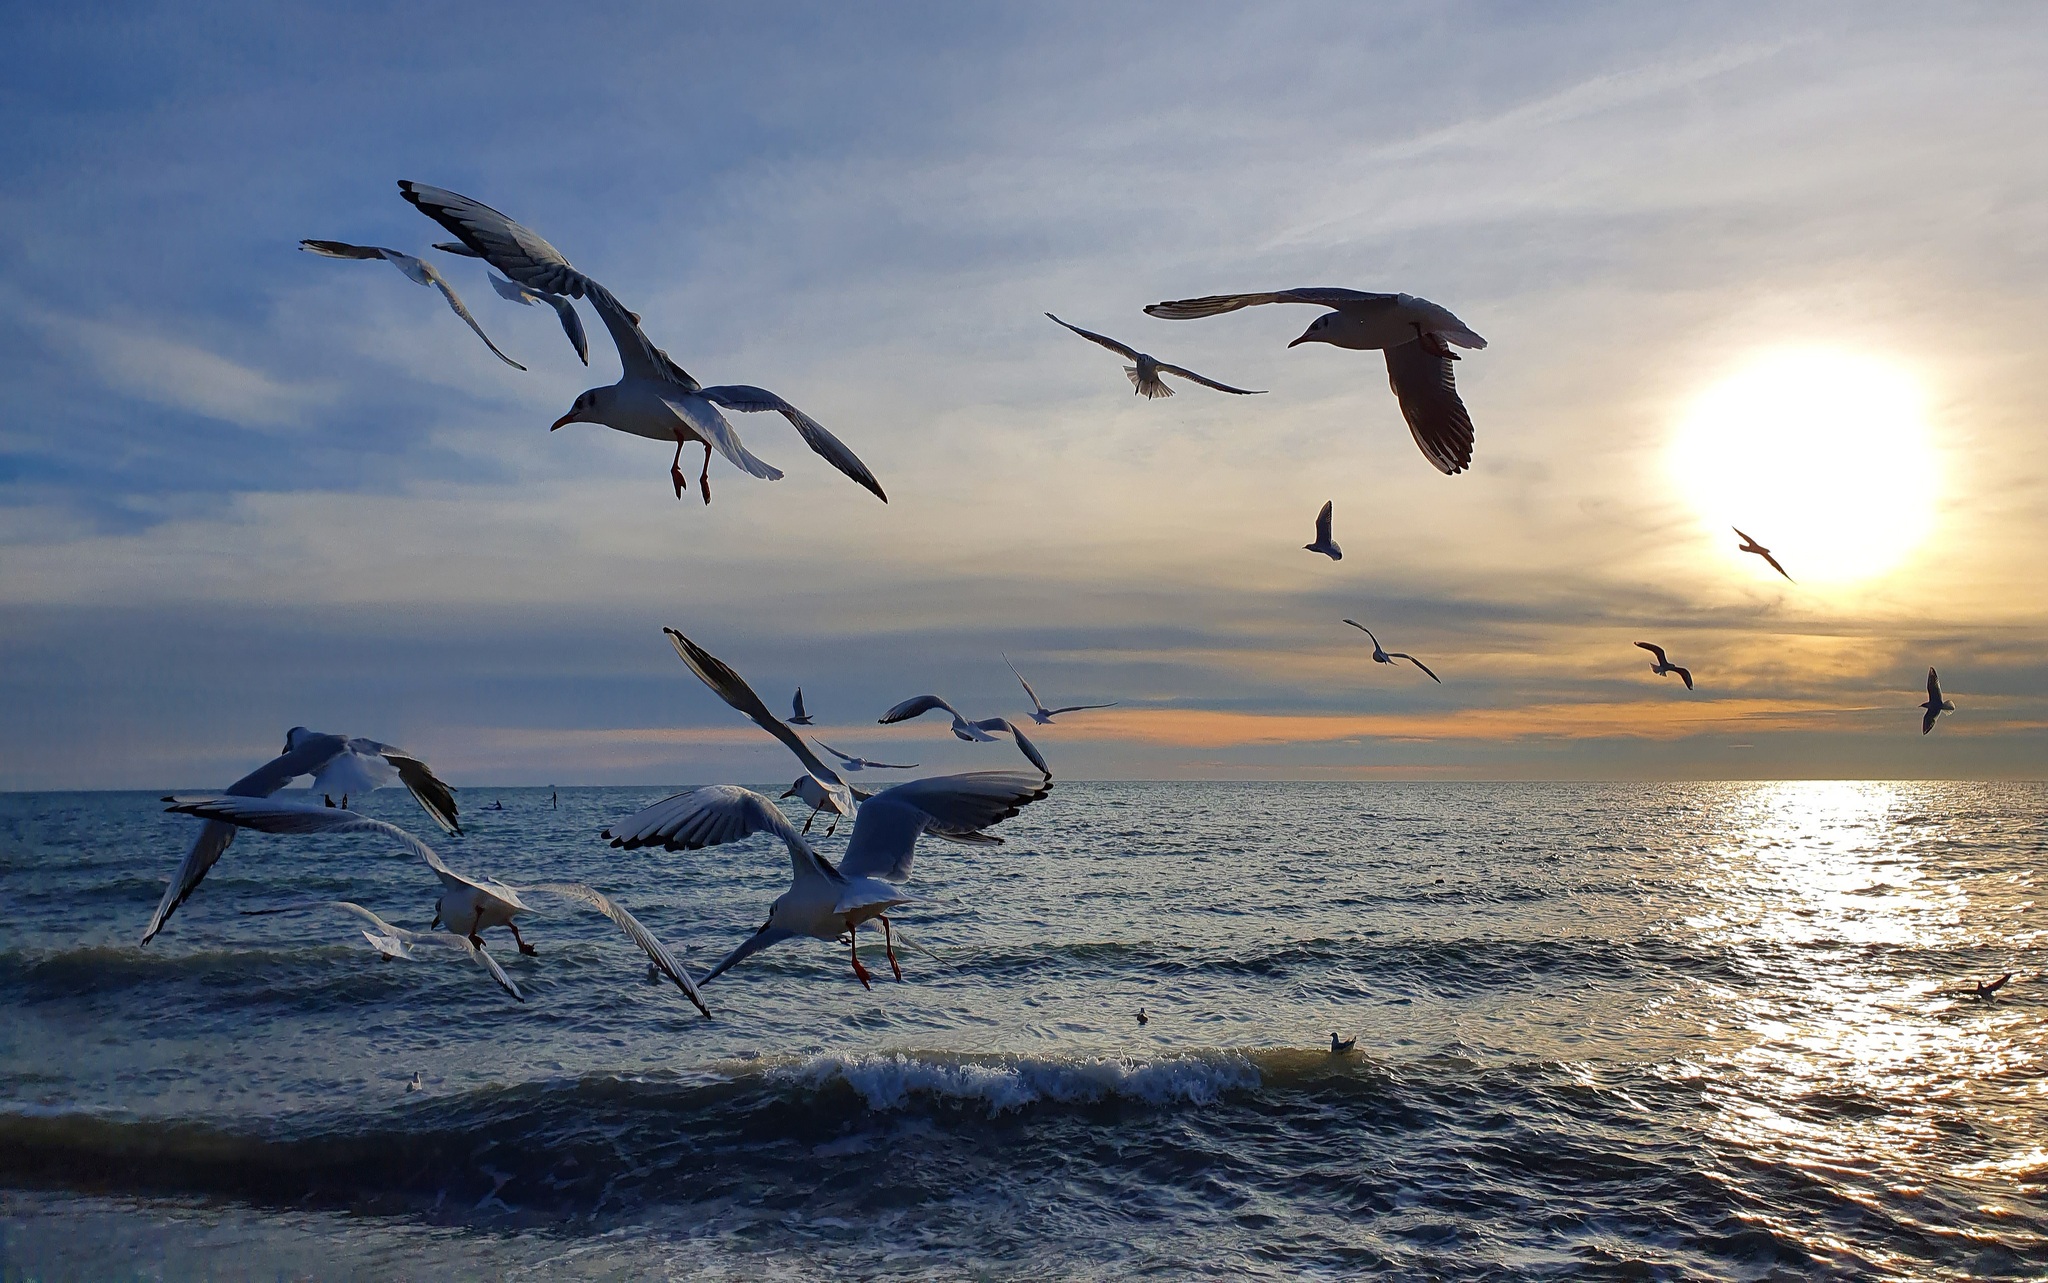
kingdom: Animalia
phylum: Chordata
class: Aves
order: Charadriiformes
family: Laridae
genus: Chroicocephalus
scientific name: Chroicocephalus ridibundus
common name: Black-headed gull
